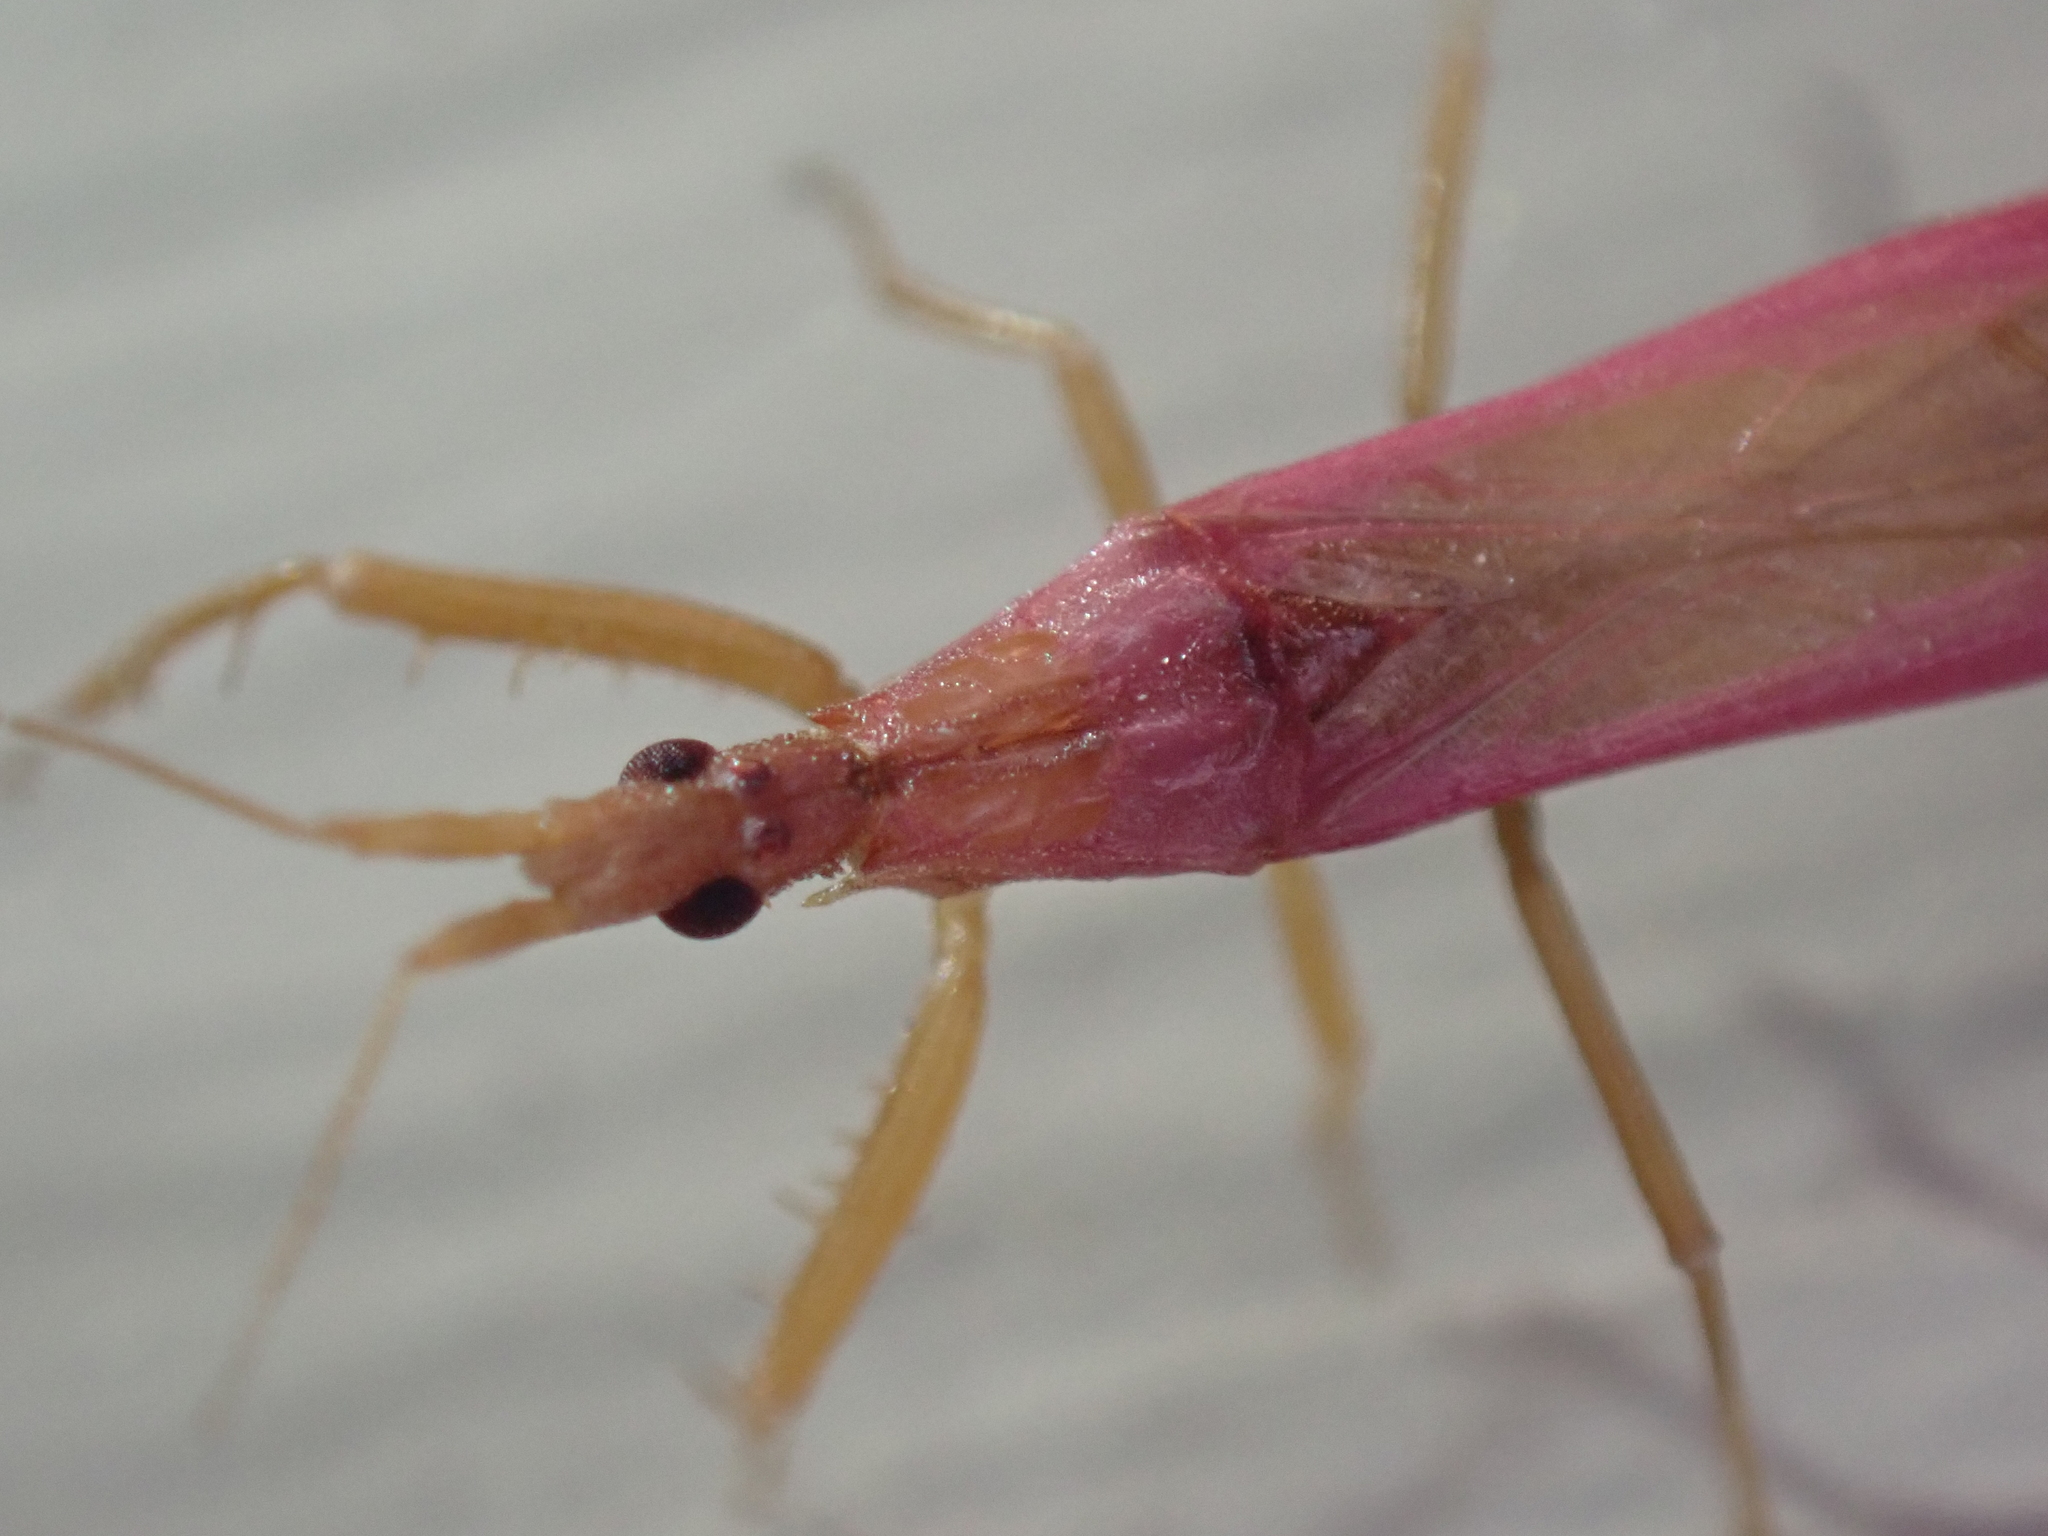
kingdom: Animalia
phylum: Arthropoda
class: Insecta
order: Hemiptera
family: Reduviidae
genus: Pnirontis
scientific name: Pnirontis languida
